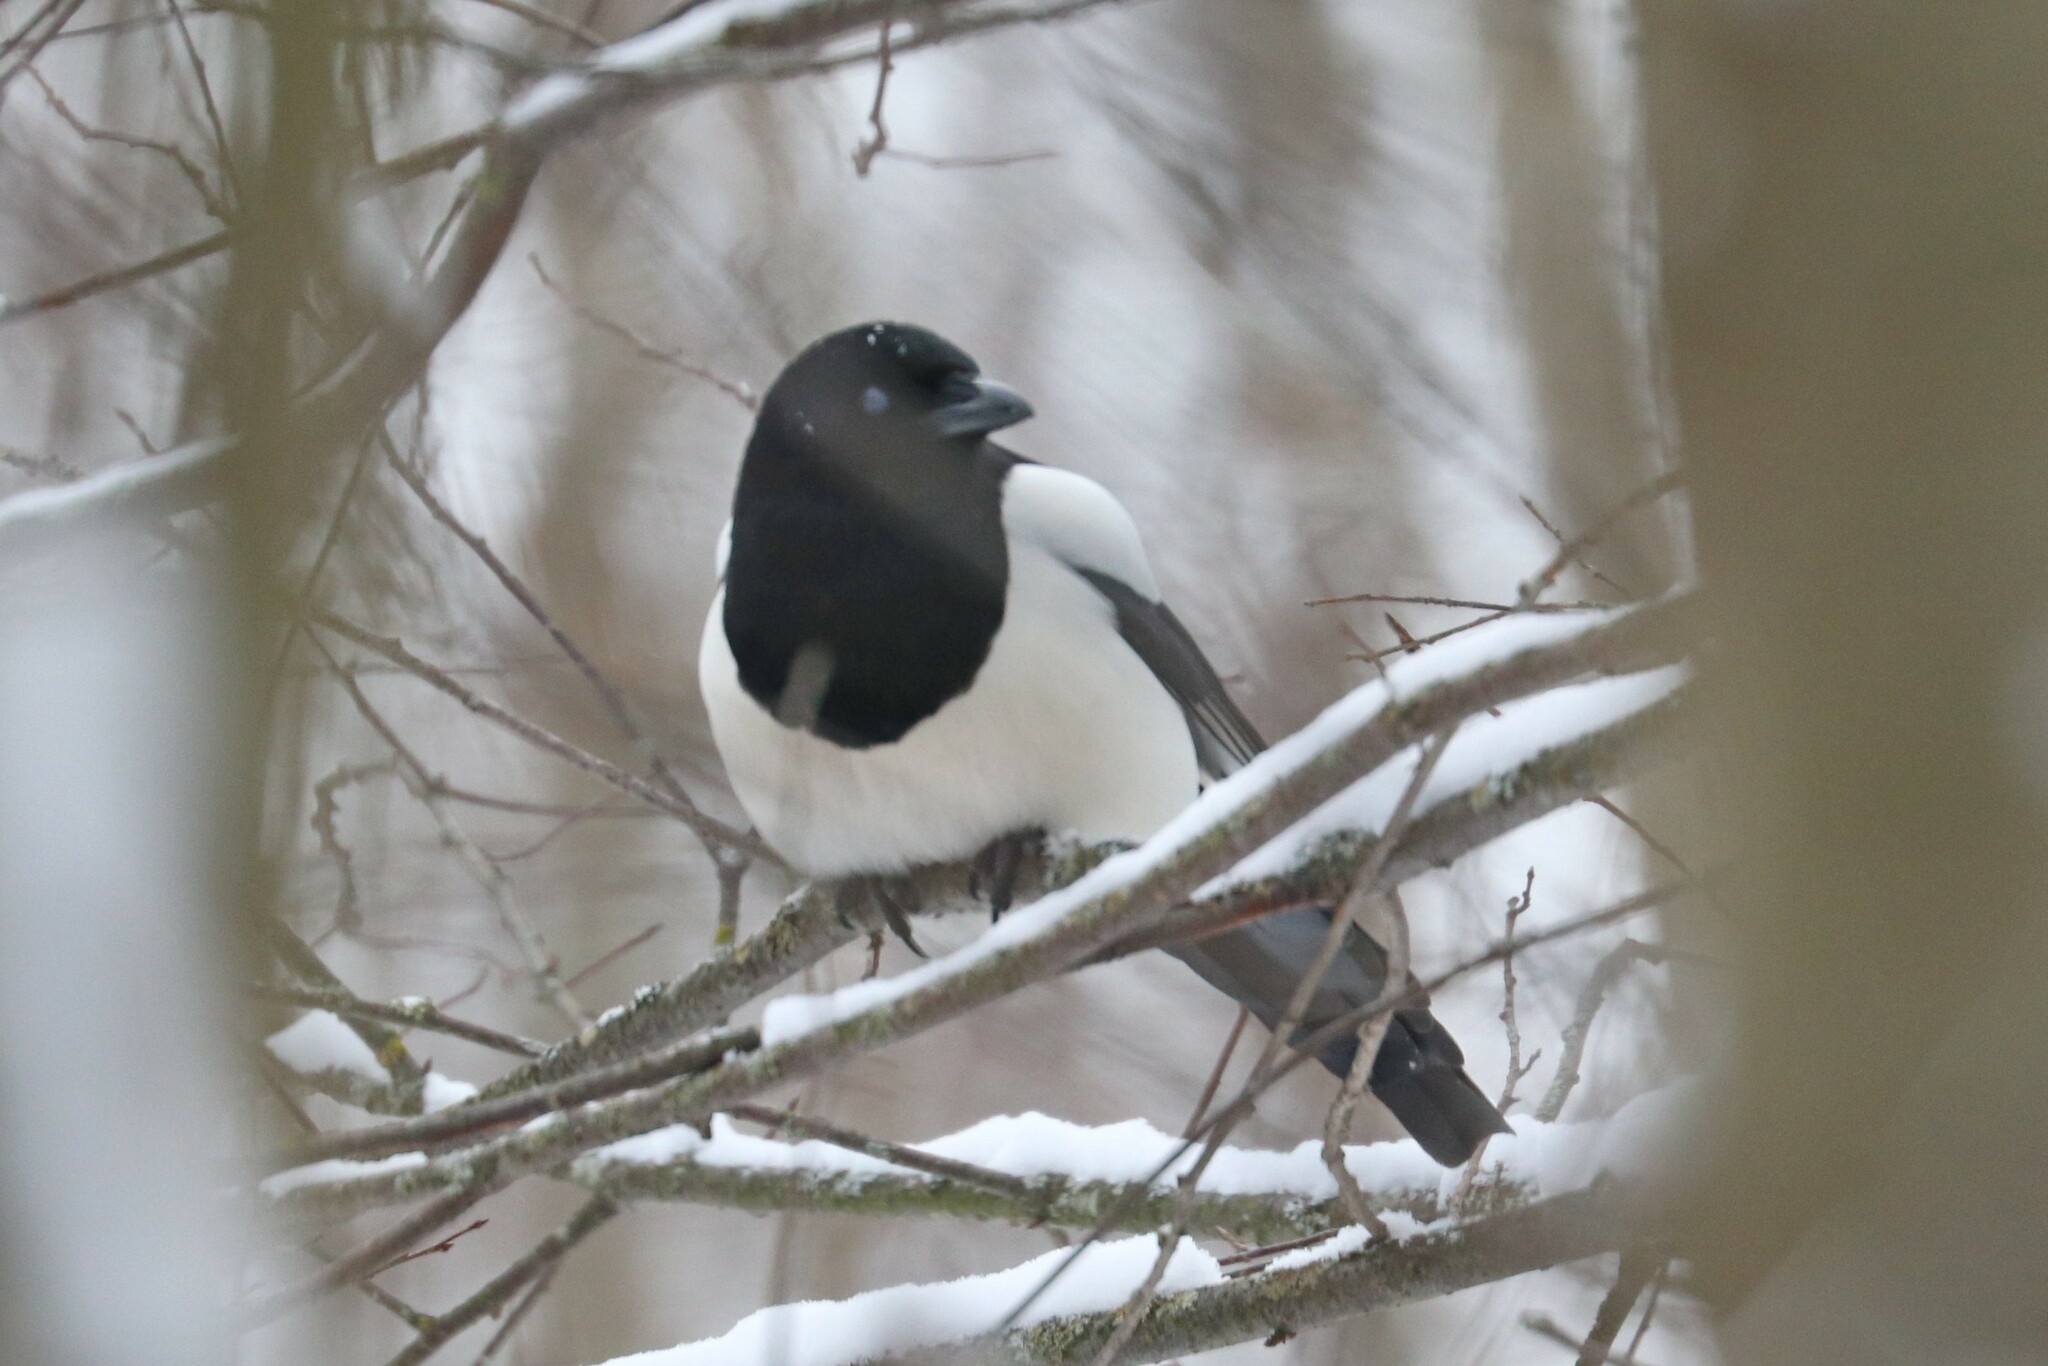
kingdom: Animalia
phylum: Chordata
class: Aves
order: Passeriformes
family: Corvidae
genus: Pica
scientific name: Pica pica
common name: Eurasian magpie
